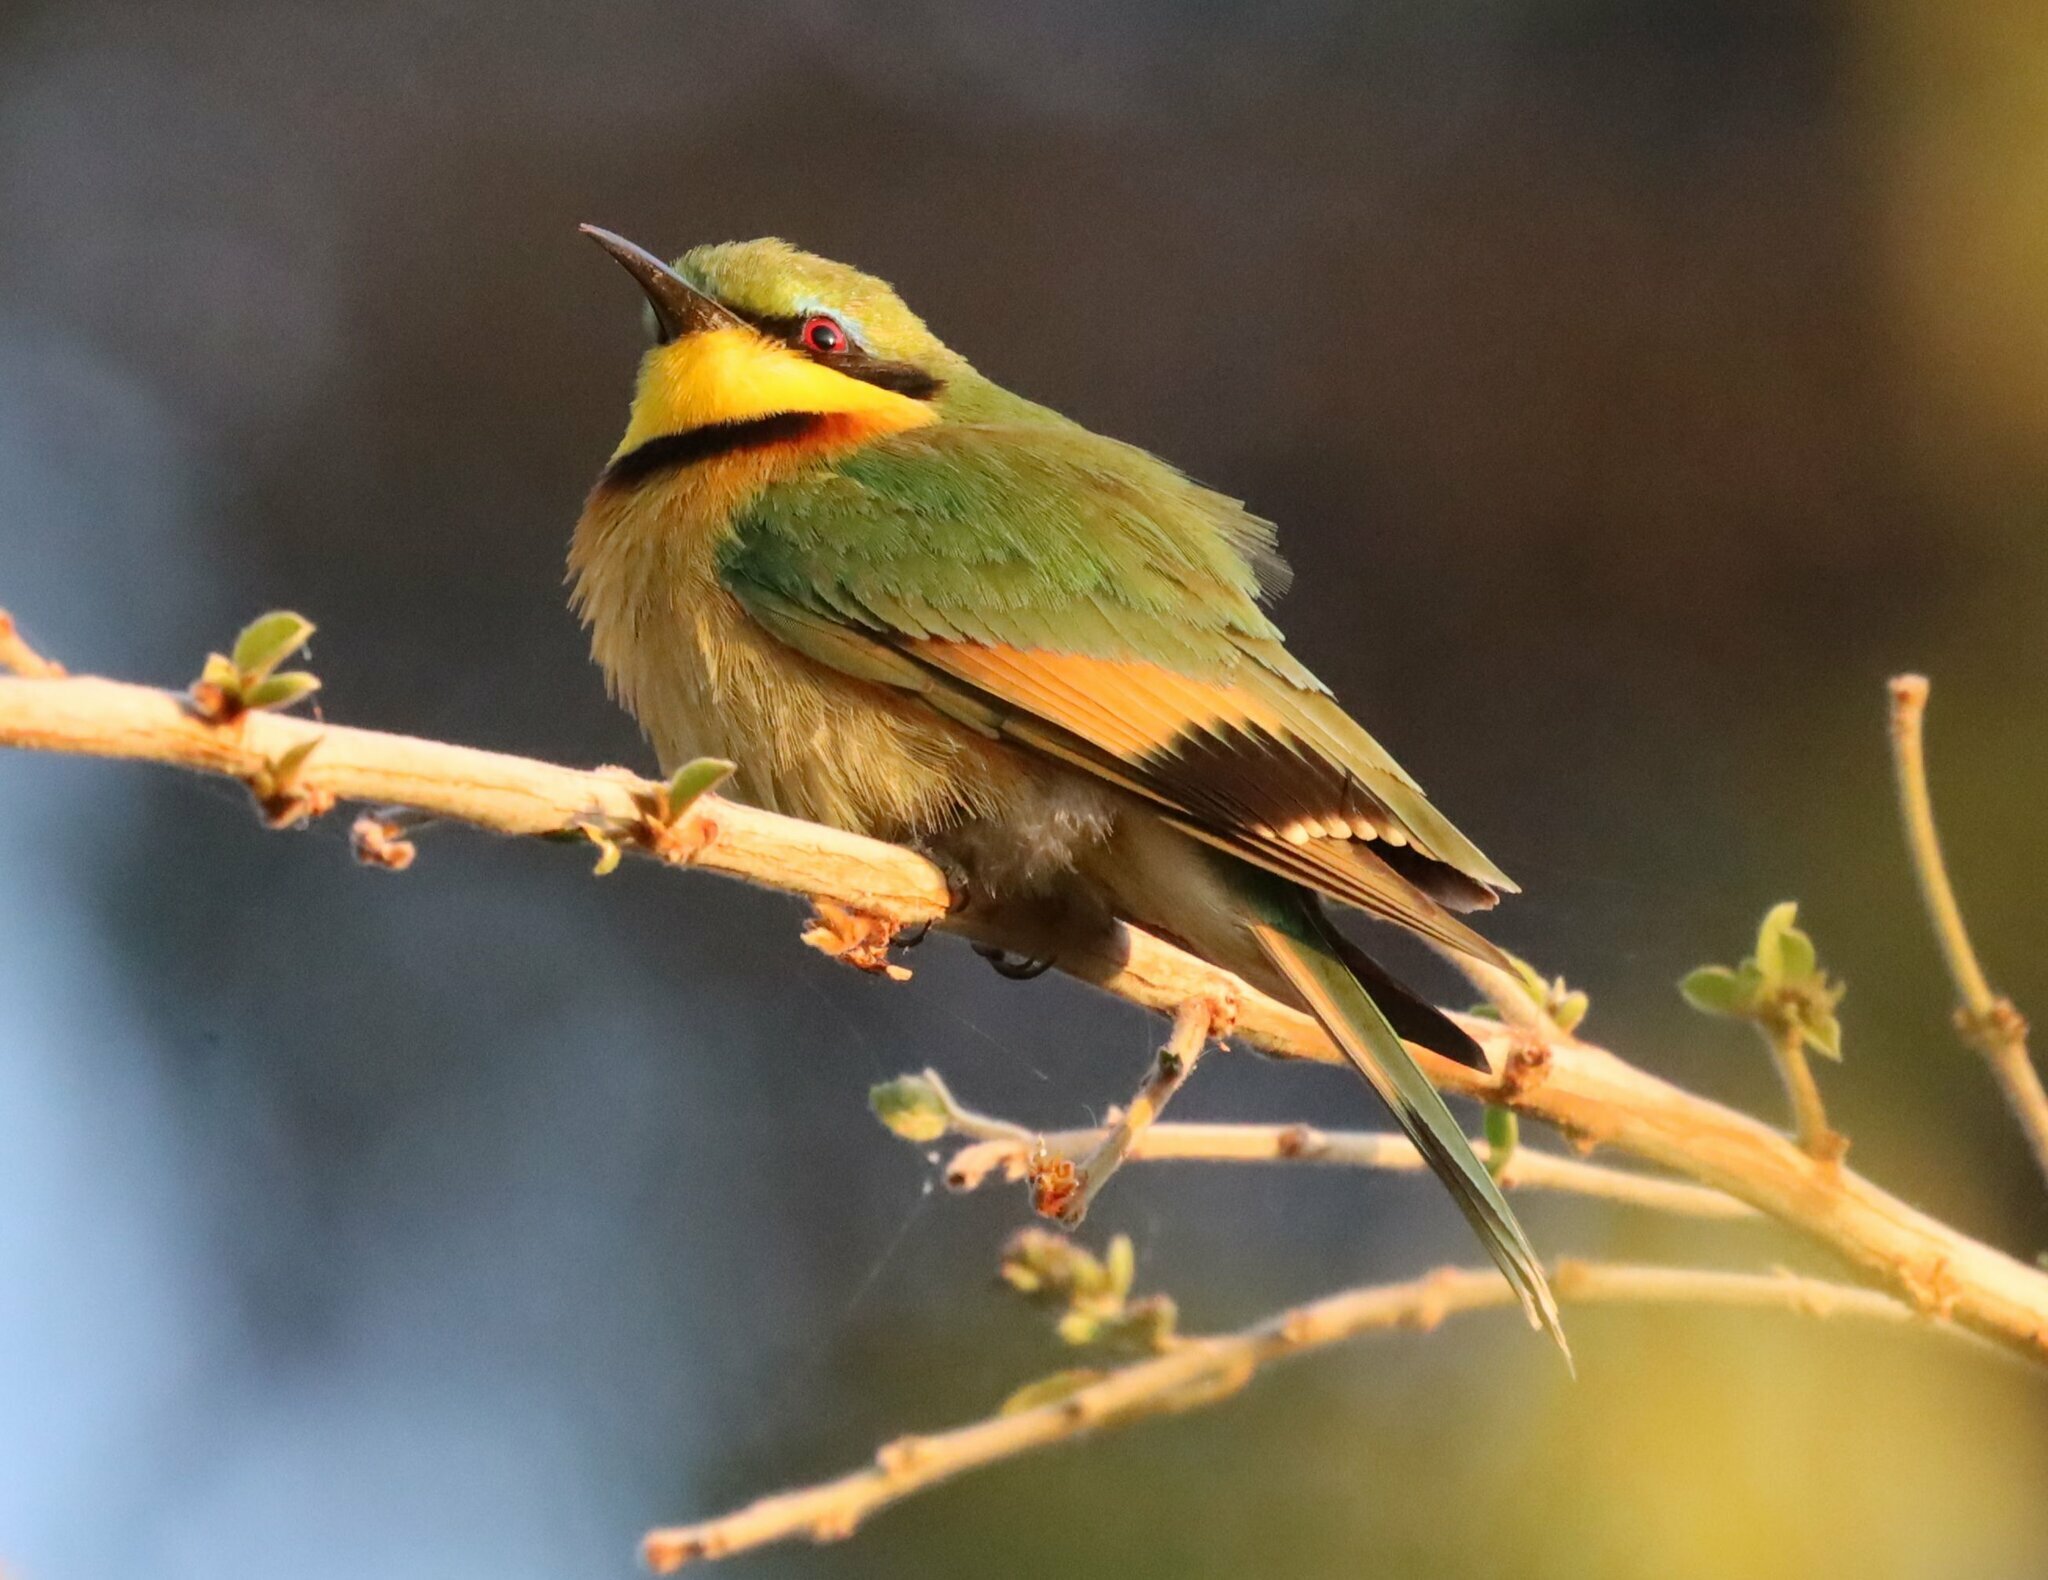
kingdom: Animalia
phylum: Chordata
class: Aves
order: Coraciiformes
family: Meropidae
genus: Merops
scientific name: Merops pusillus
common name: Little bee-eater
